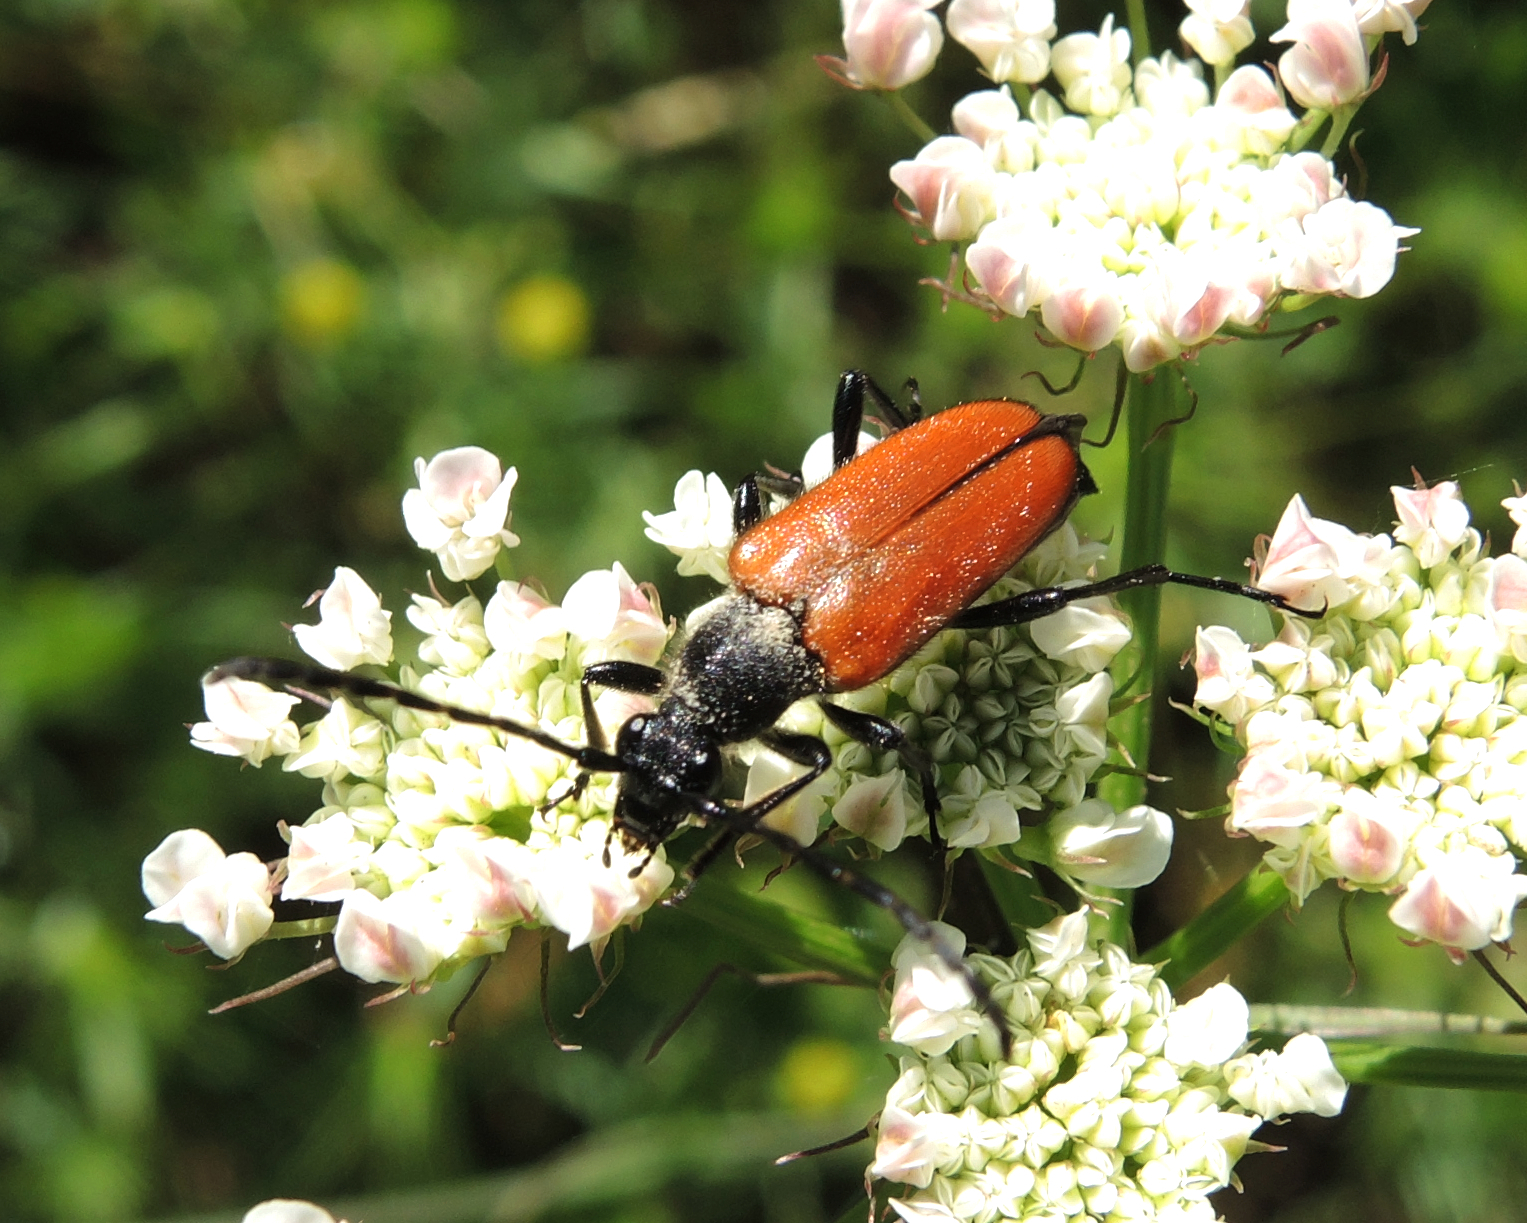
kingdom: Animalia
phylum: Arthropoda
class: Insecta
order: Coleoptera
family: Cerambycidae
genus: Paracorymbia
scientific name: Paracorymbia pallens
